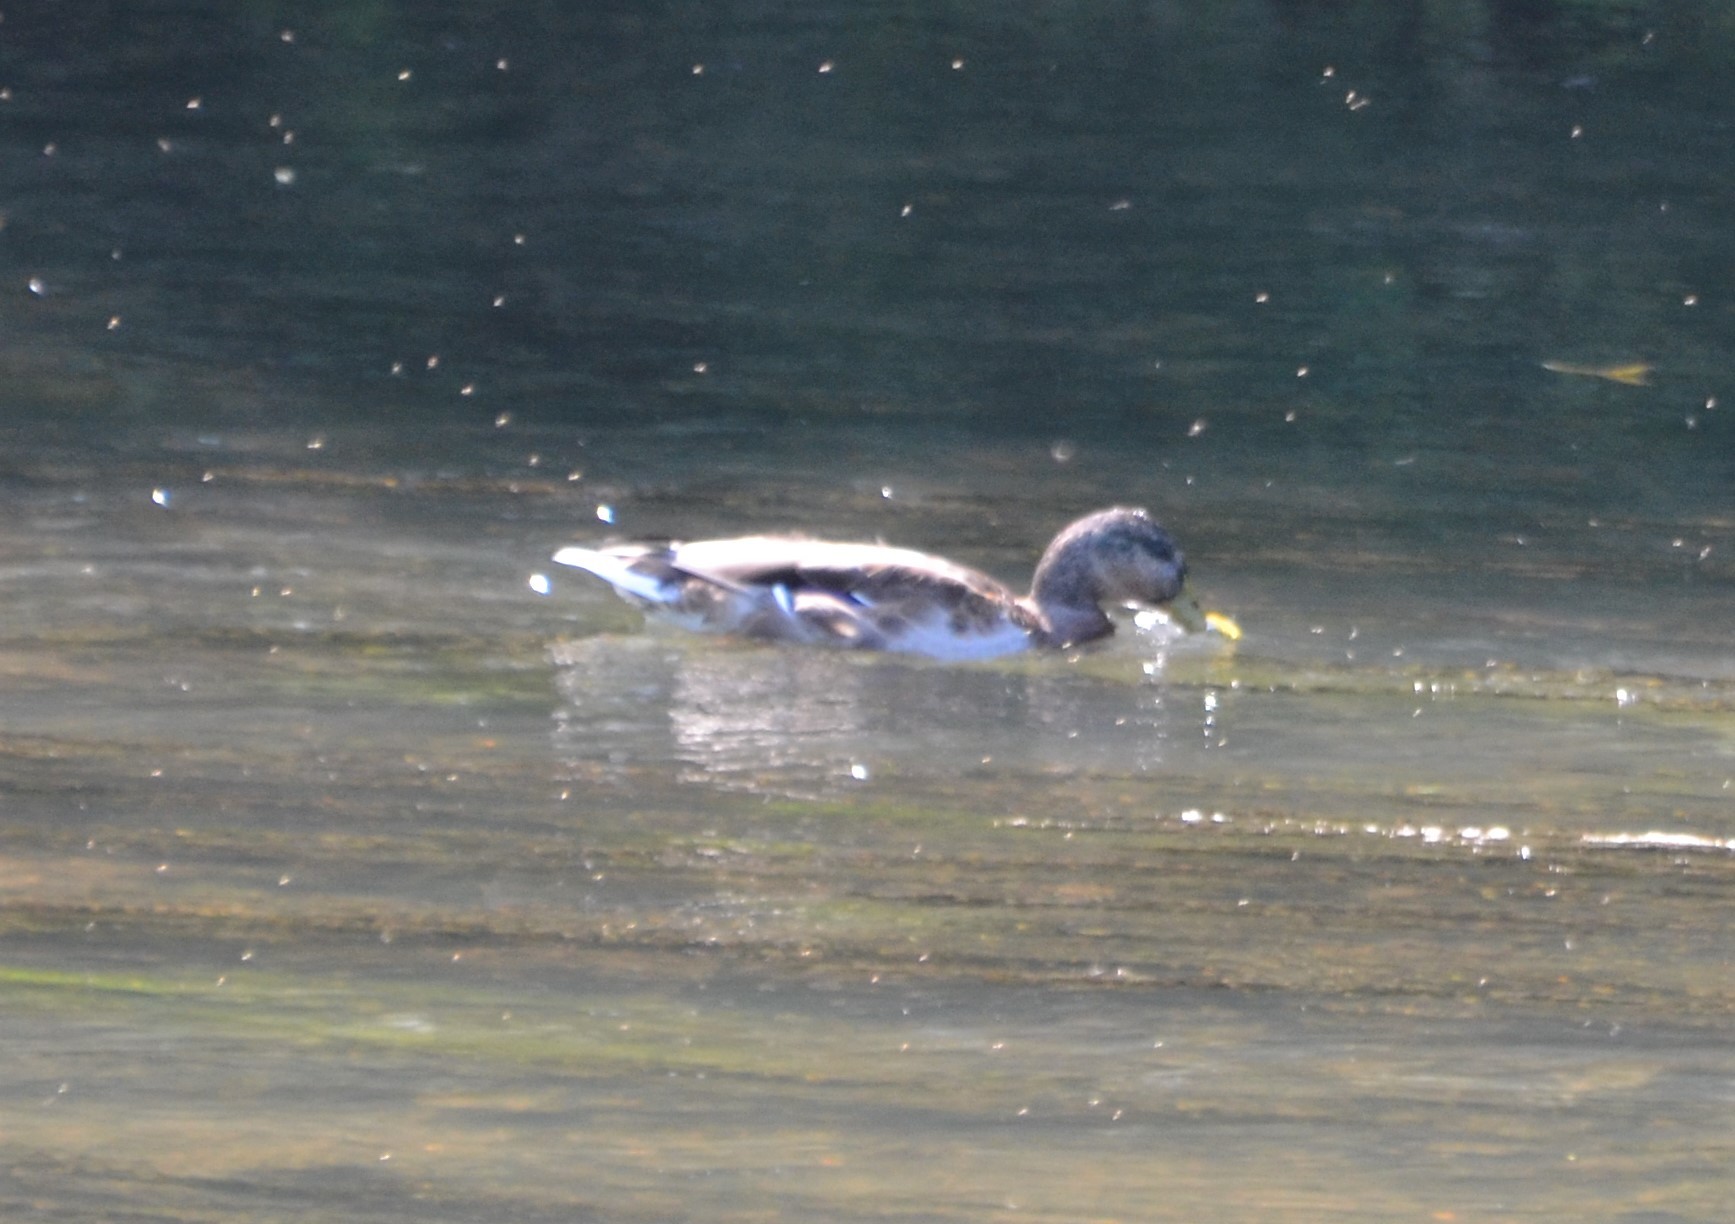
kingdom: Animalia
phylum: Chordata
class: Aves
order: Anseriformes
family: Anatidae
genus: Anas
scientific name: Anas platyrhynchos
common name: Mallard
